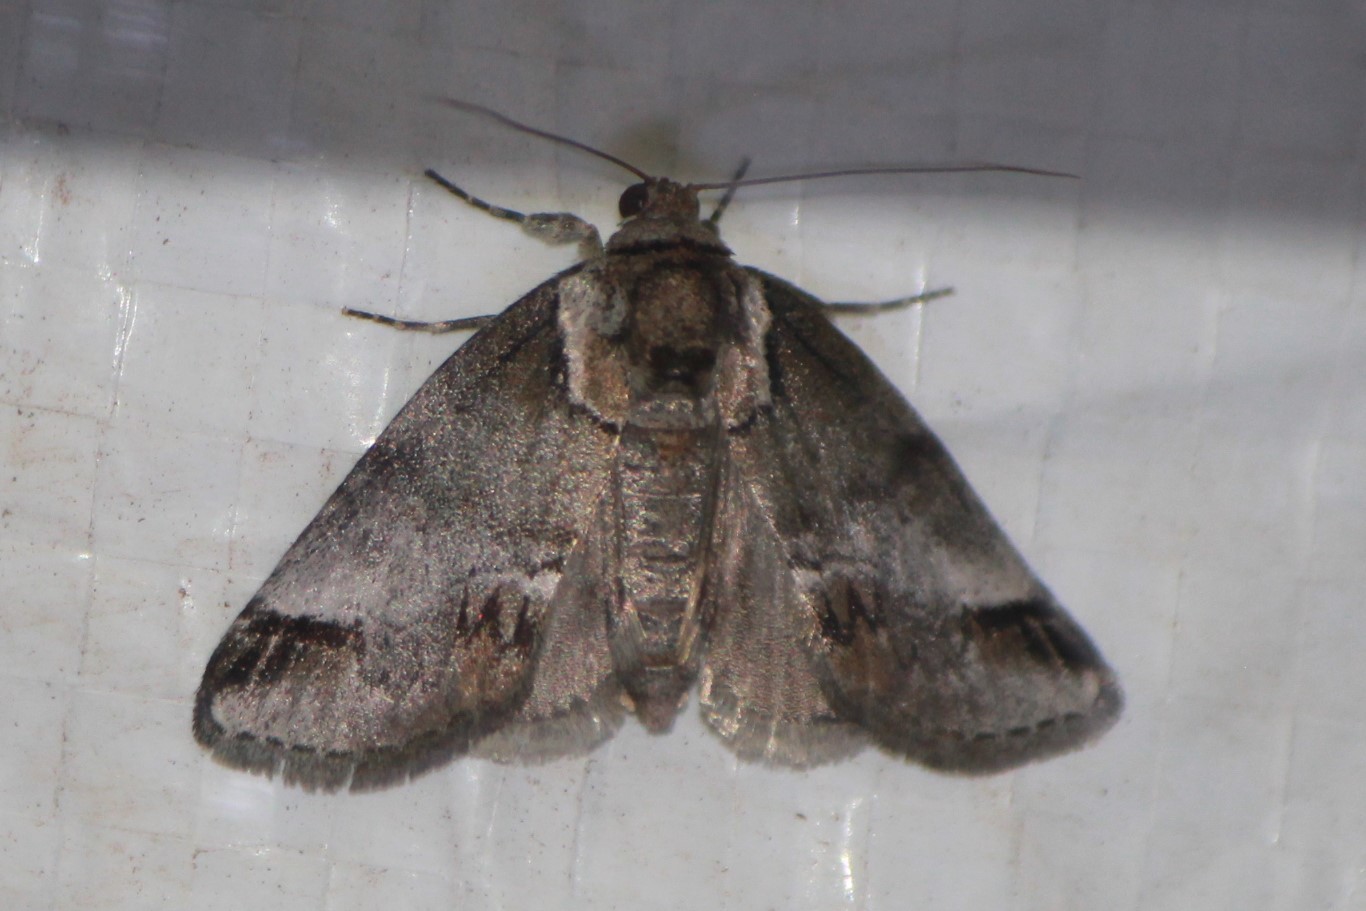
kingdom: Animalia
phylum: Arthropoda
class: Insecta
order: Lepidoptera
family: Nolidae
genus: Baileya
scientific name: Baileya australis
